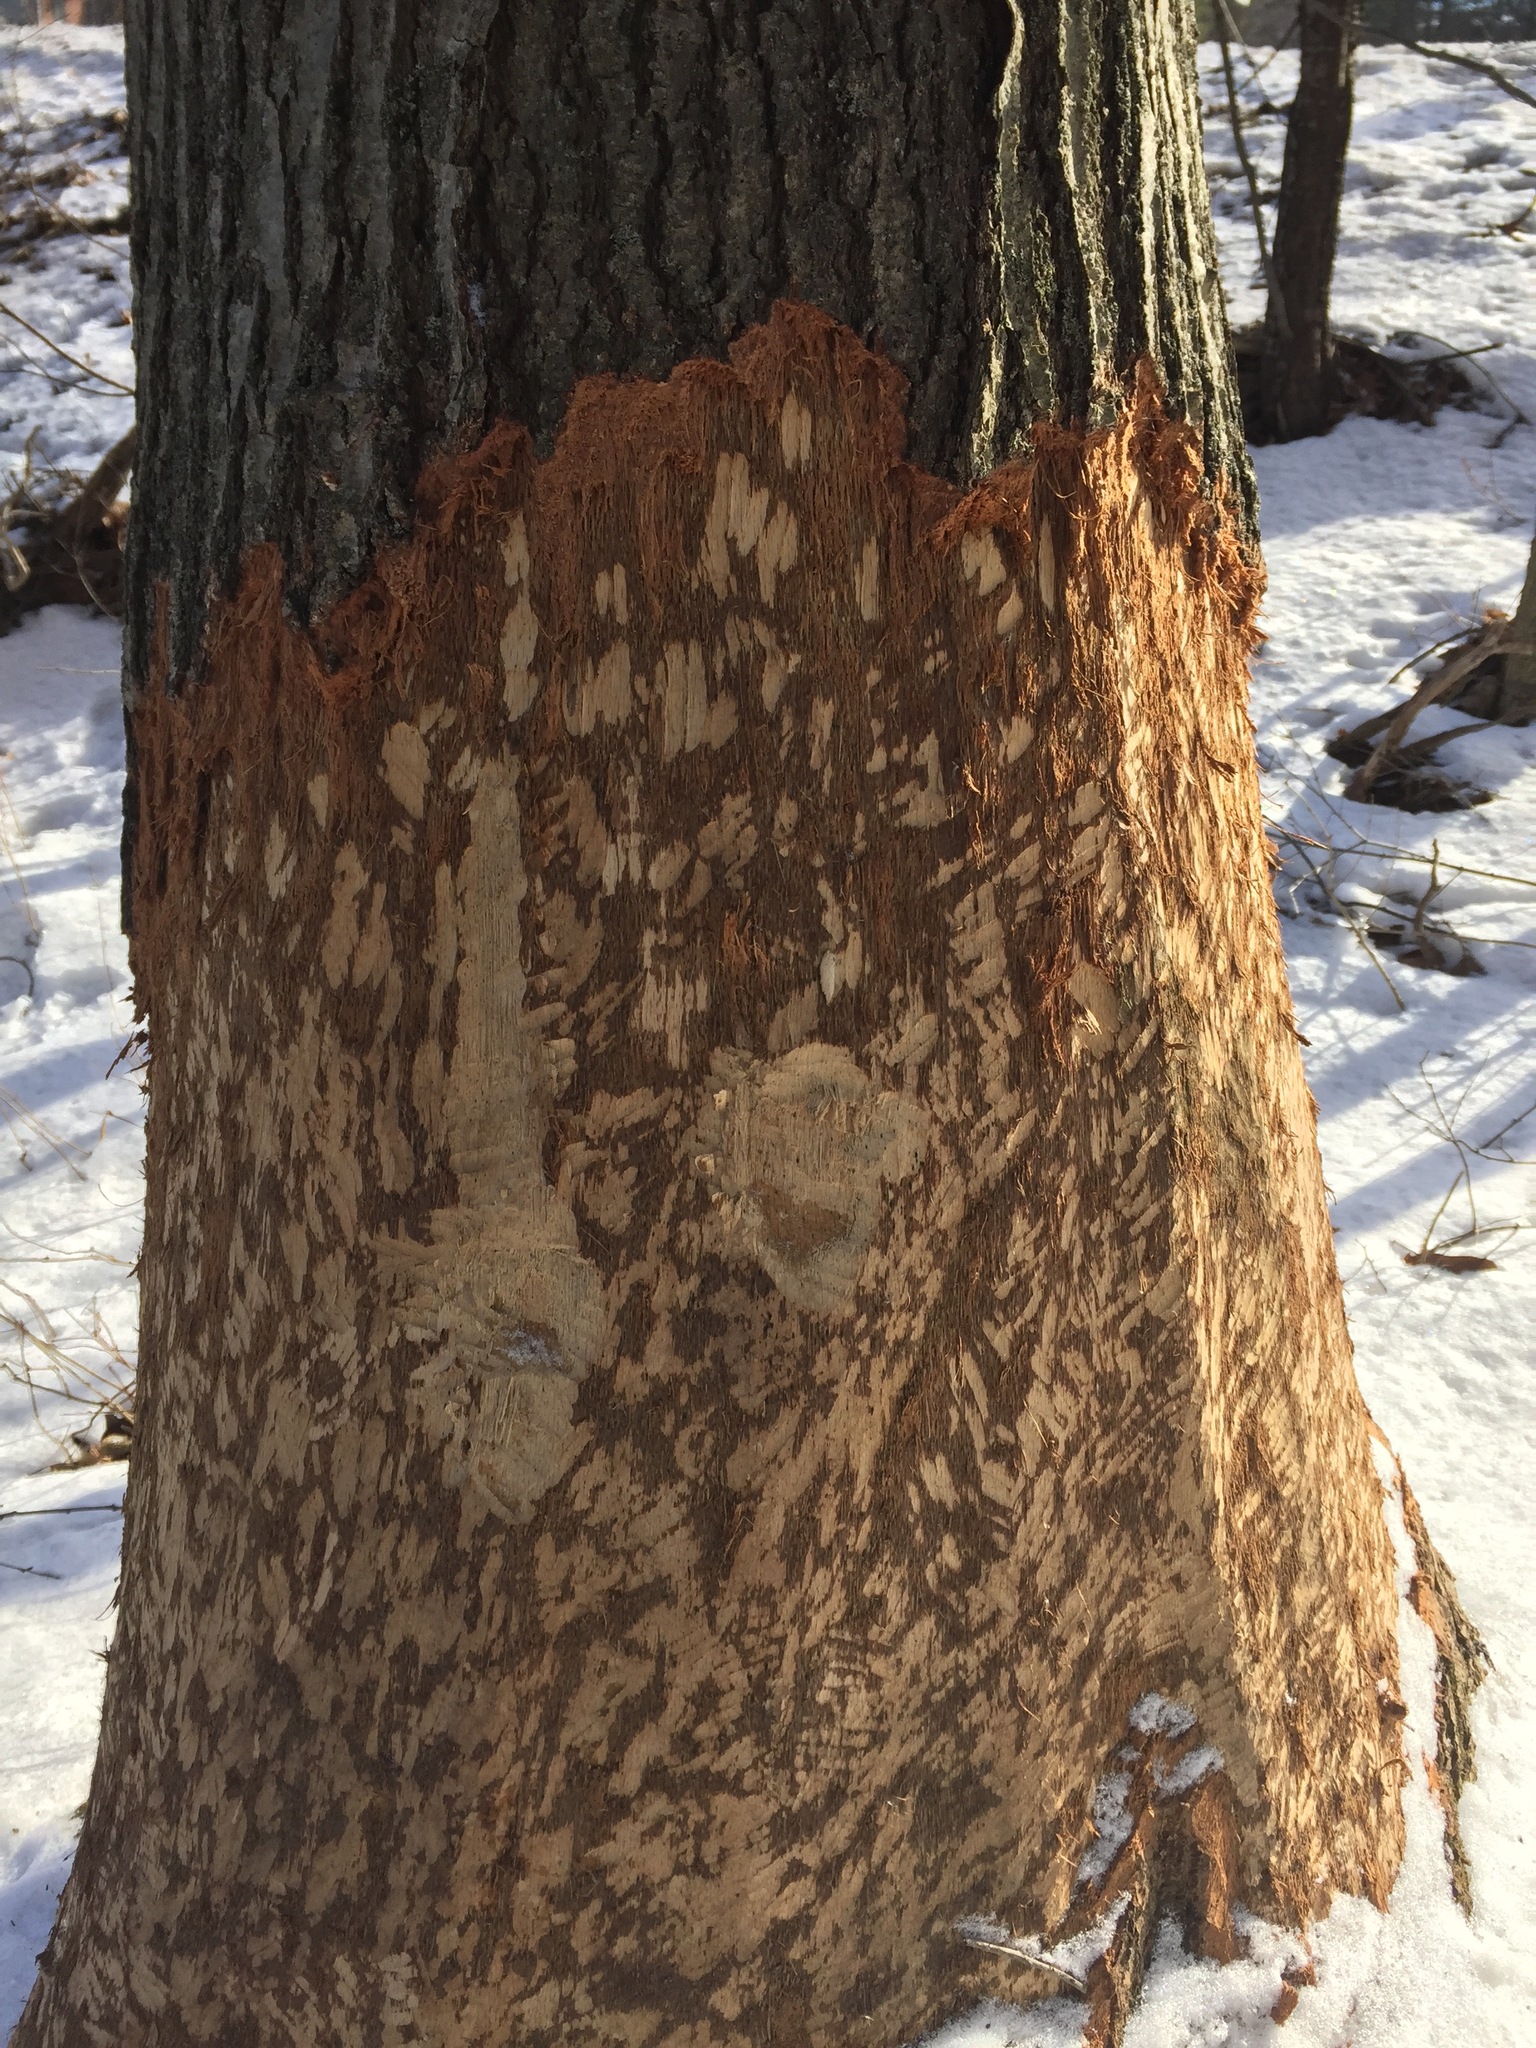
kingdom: Animalia
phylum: Chordata
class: Mammalia
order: Rodentia
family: Castoridae
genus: Castor
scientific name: Castor canadensis
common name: American beaver
